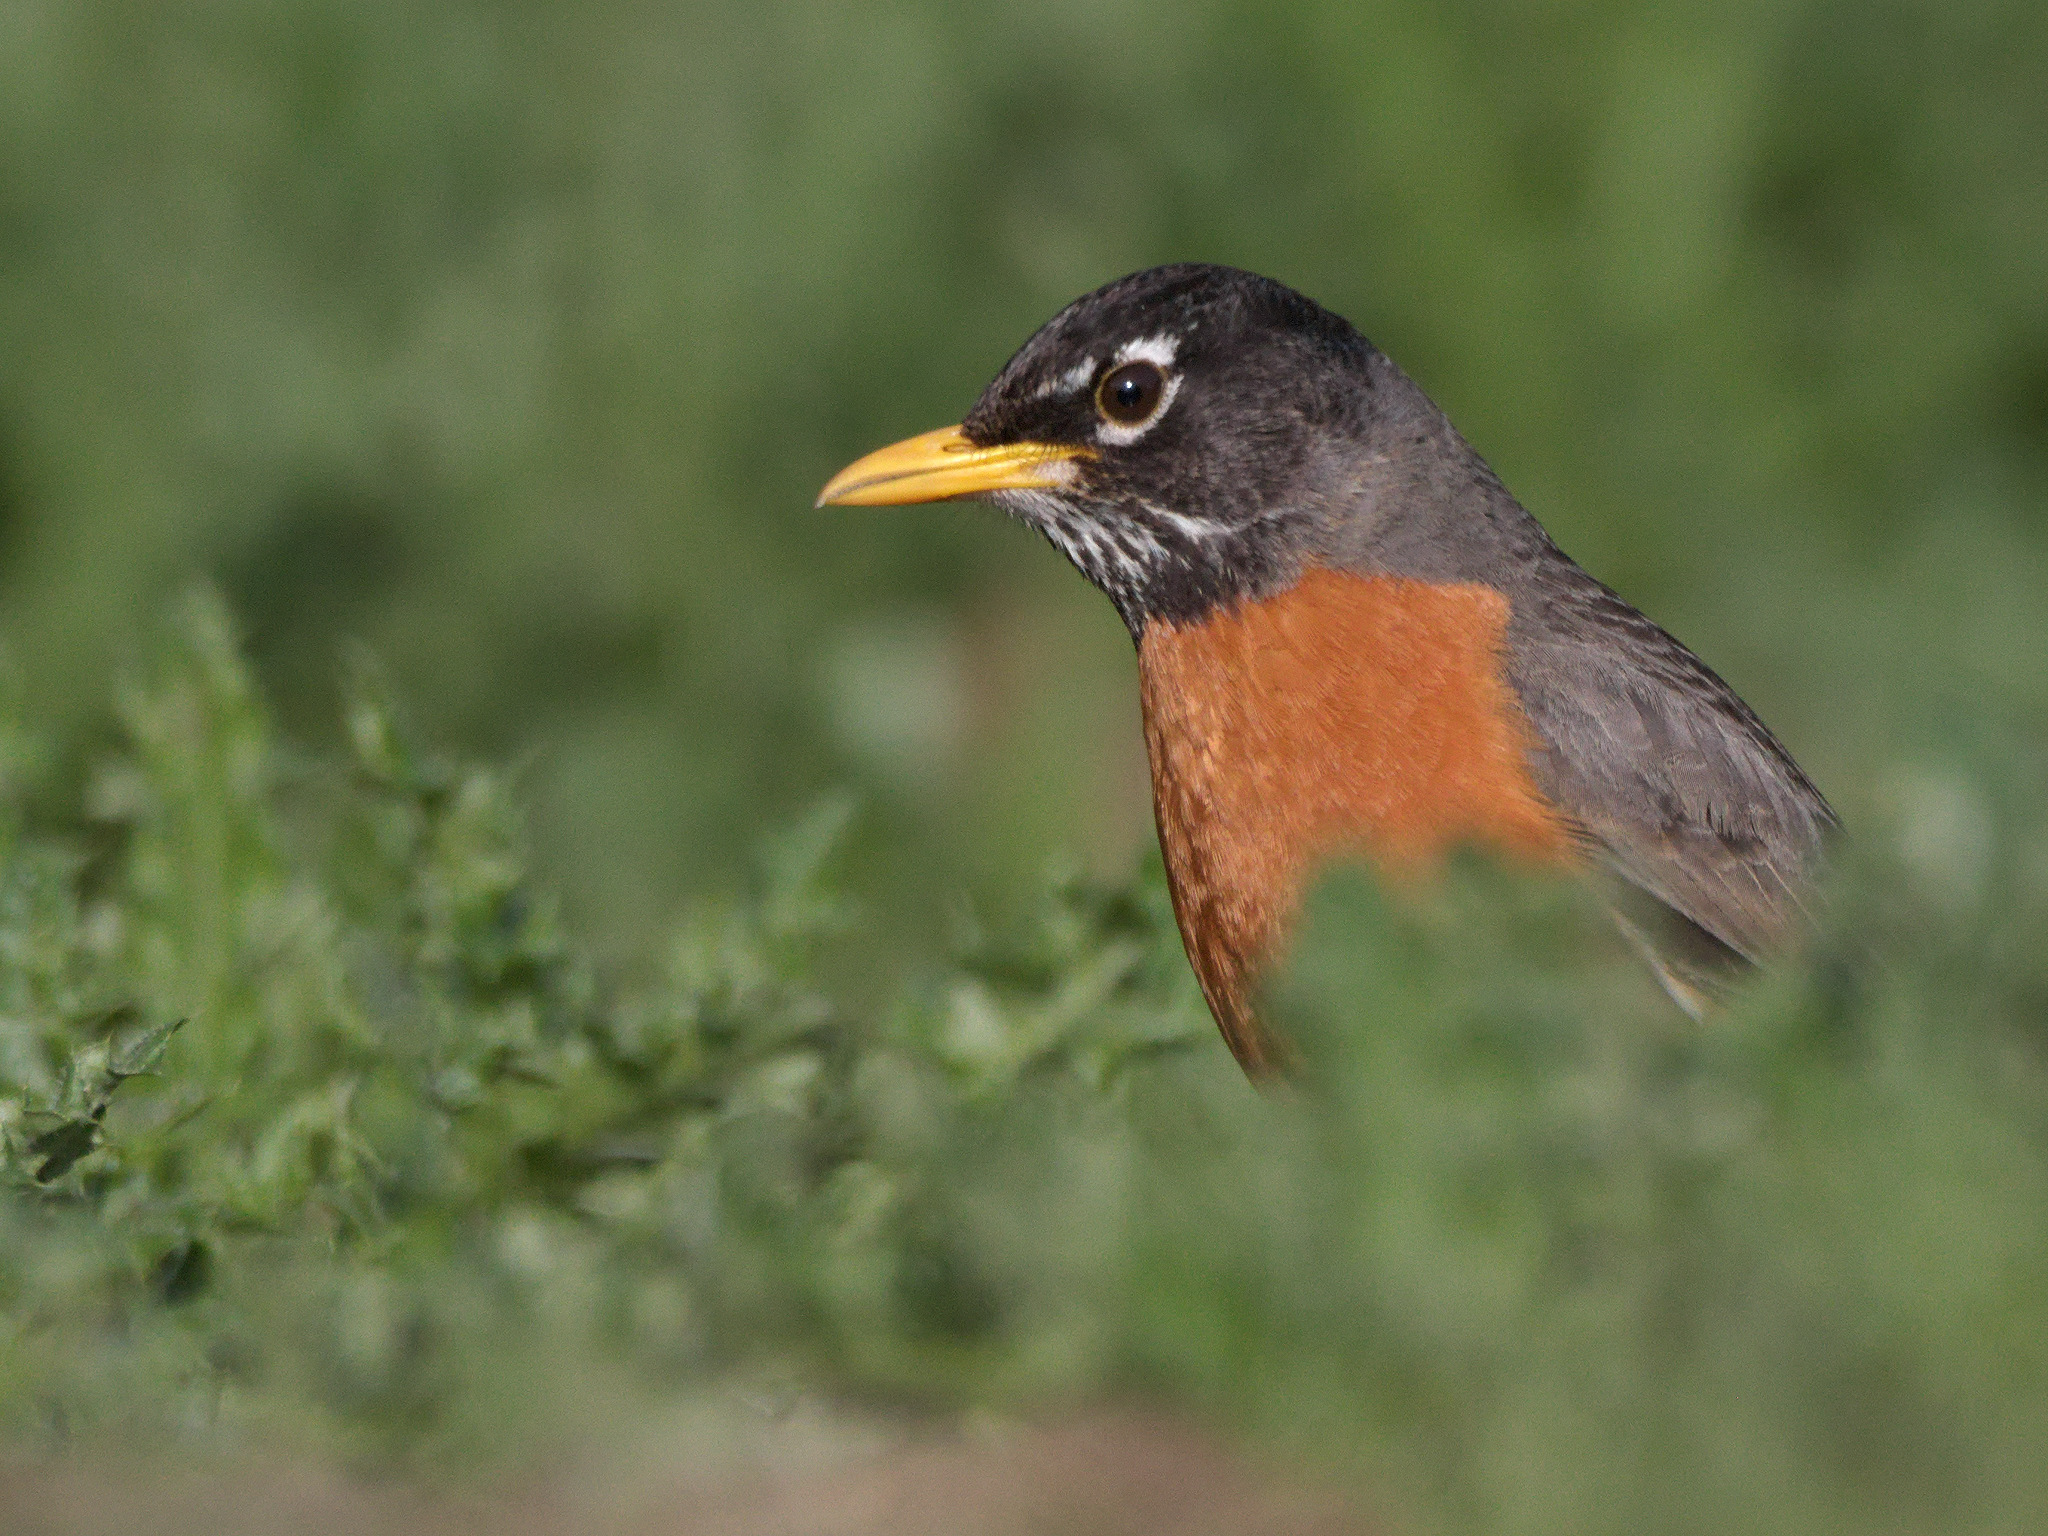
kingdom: Animalia
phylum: Chordata
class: Aves
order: Passeriformes
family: Turdidae
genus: Turdus
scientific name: Turdus migratorius
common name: American robin
